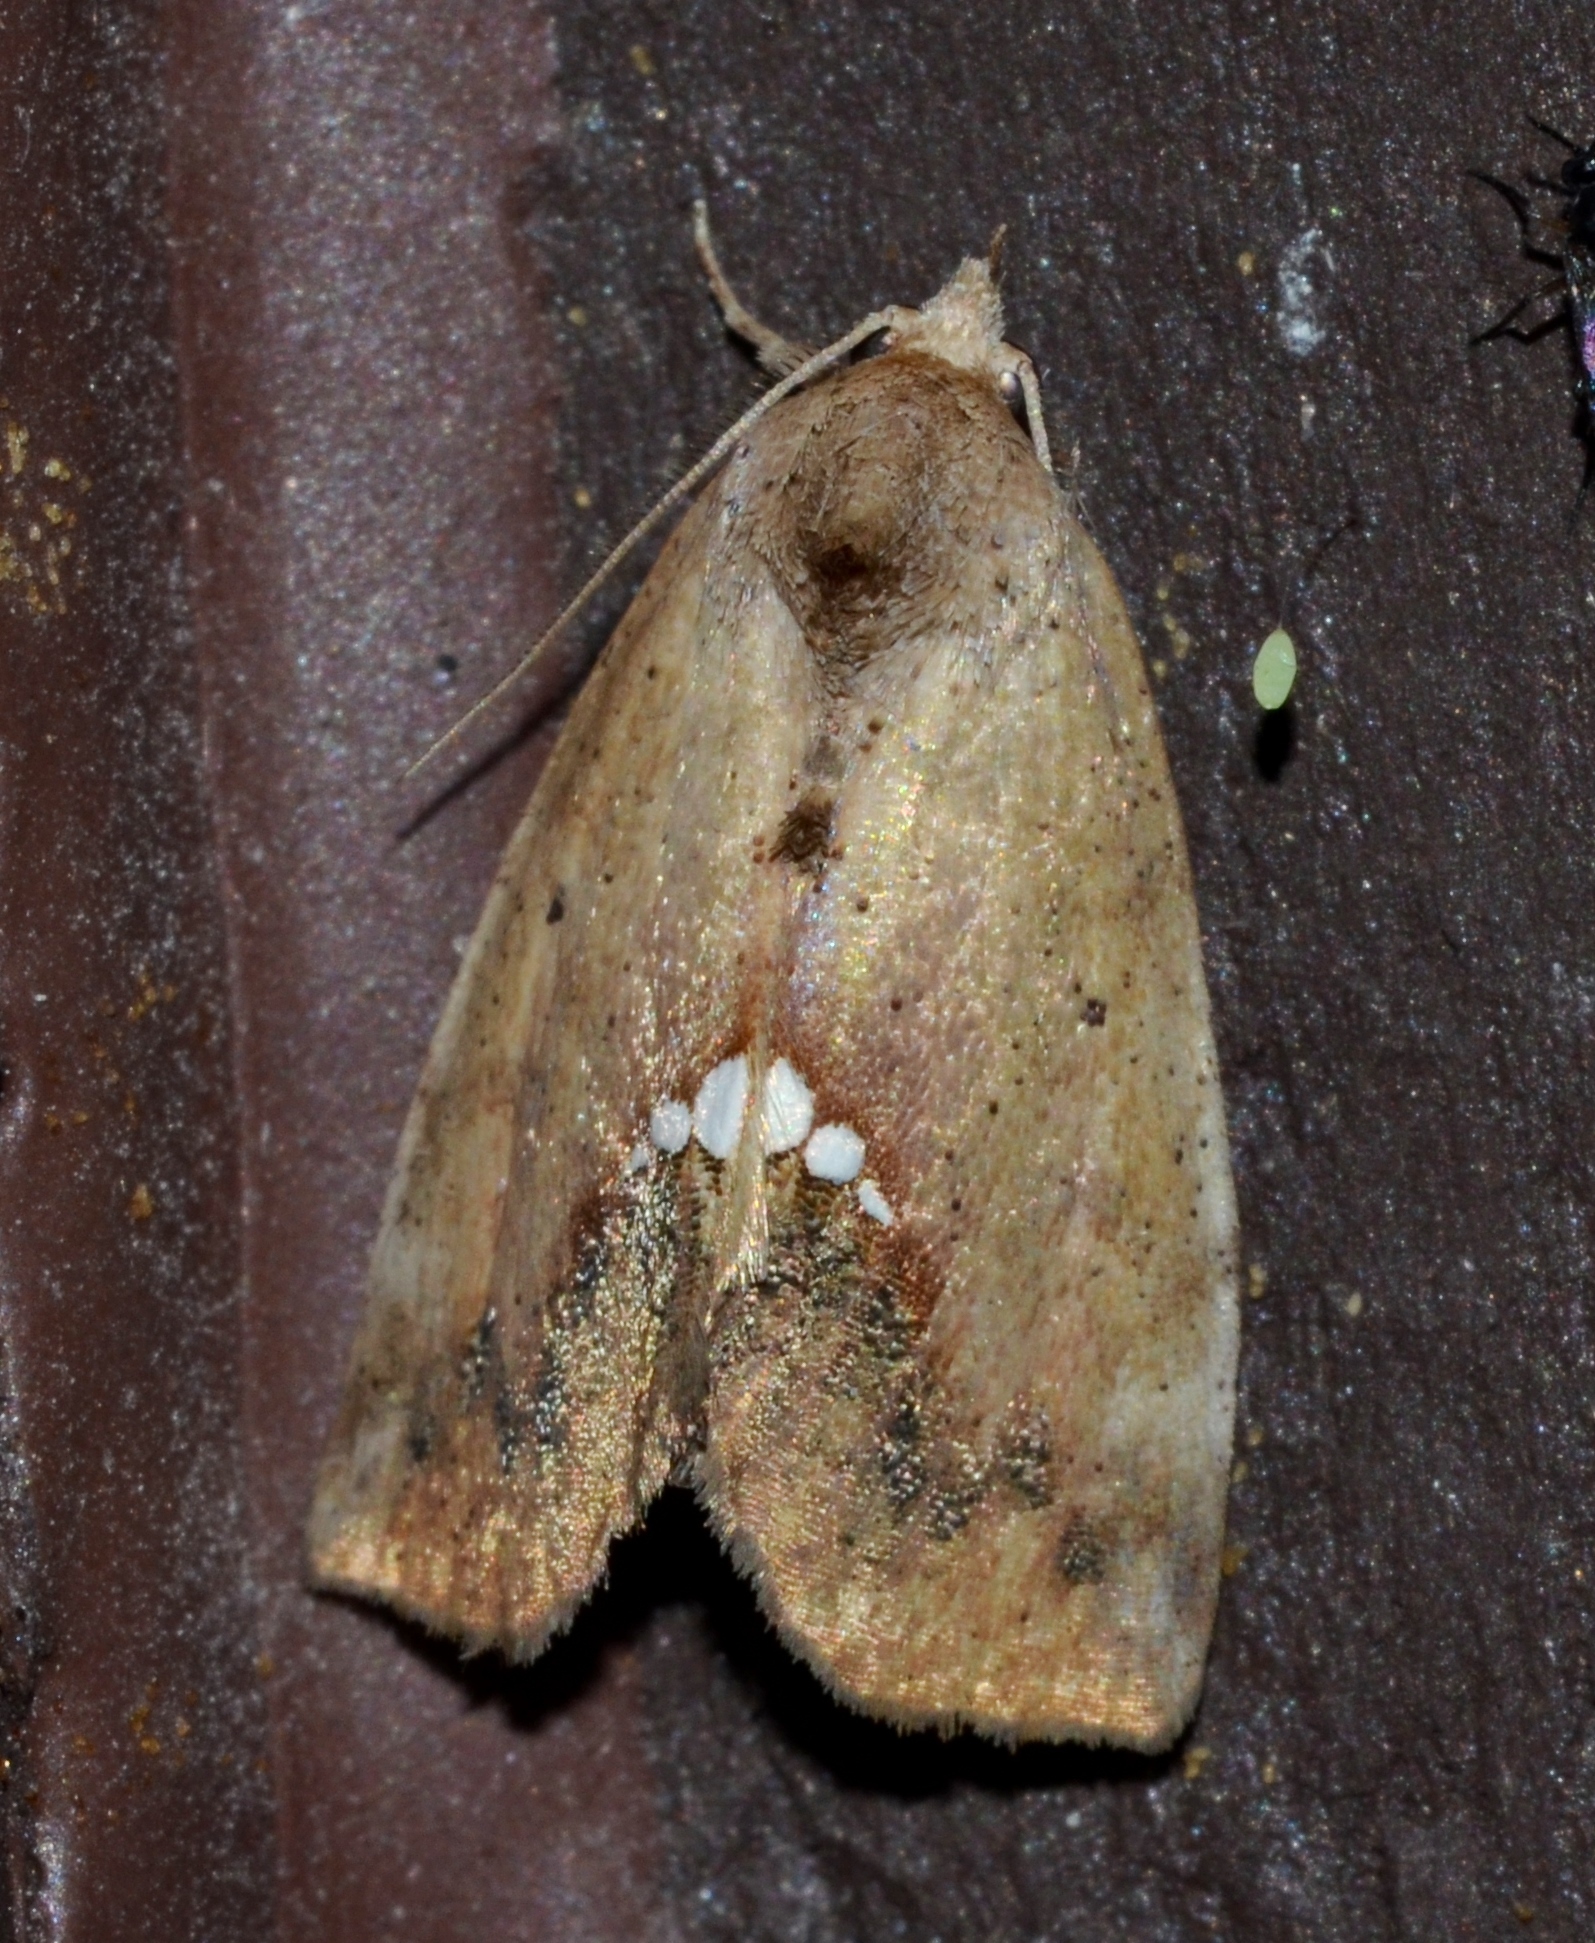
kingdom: Animalia
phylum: Arthropoda
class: Insecta
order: Lepidoptera
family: Erebidae
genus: Hypsoropha
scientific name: Hypsoropha hormos
